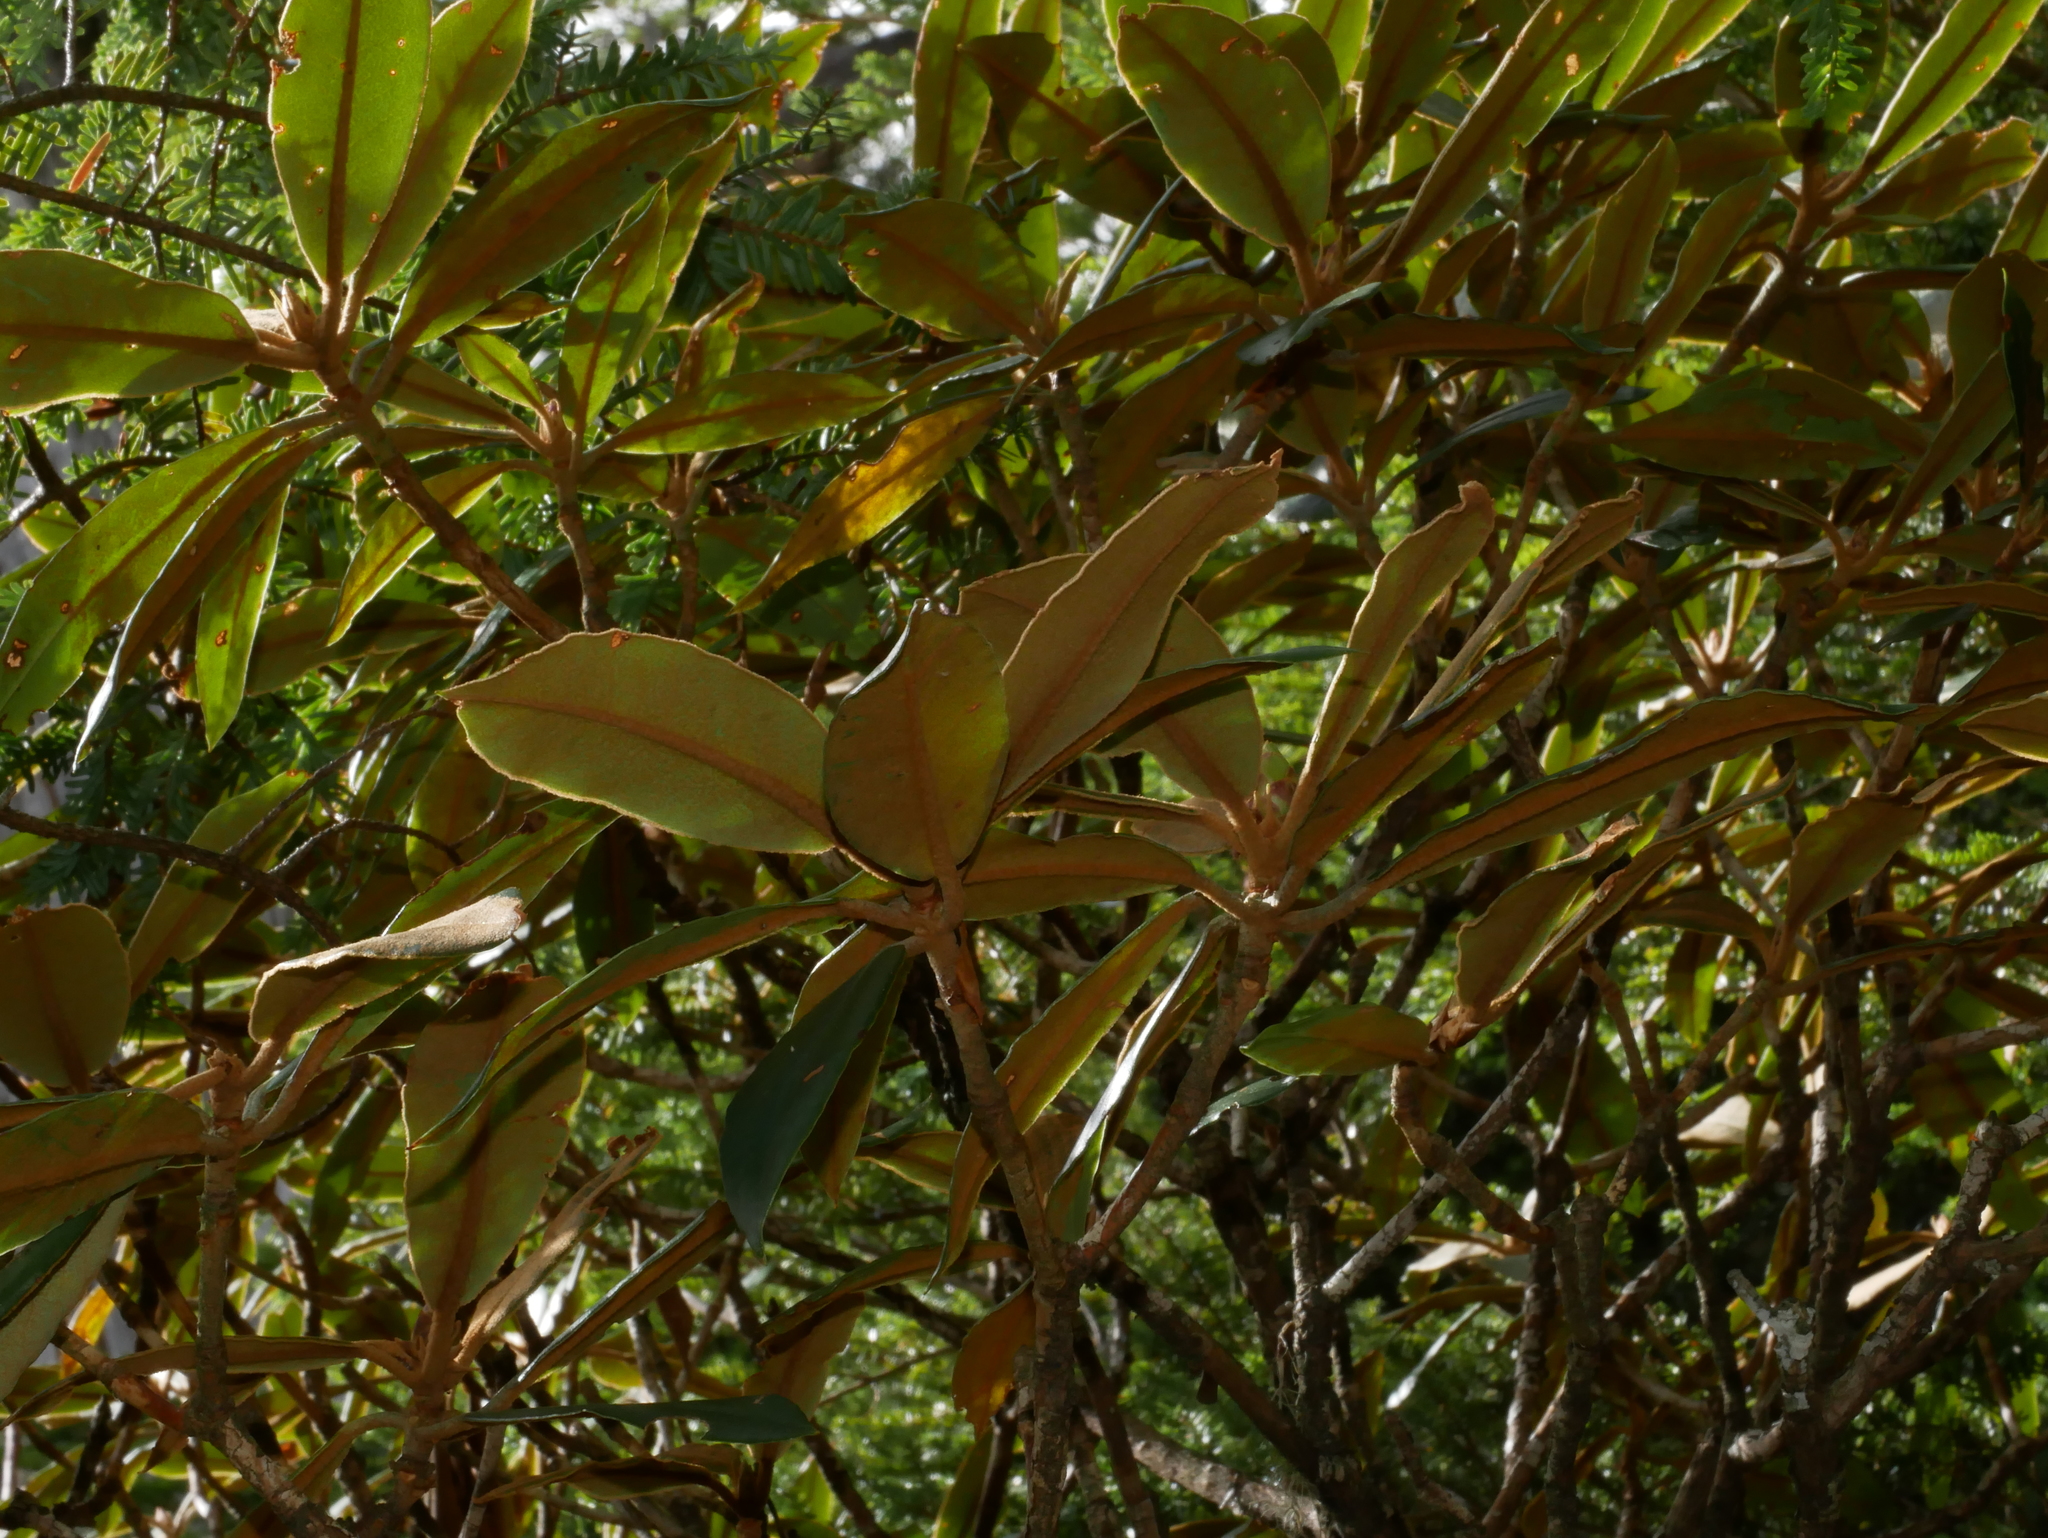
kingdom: Plantae
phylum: Tracheophyta
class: Magnoliopsida
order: Ericales
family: Ericaceae
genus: Rhododendron
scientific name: Rhododendron hyperythrum
